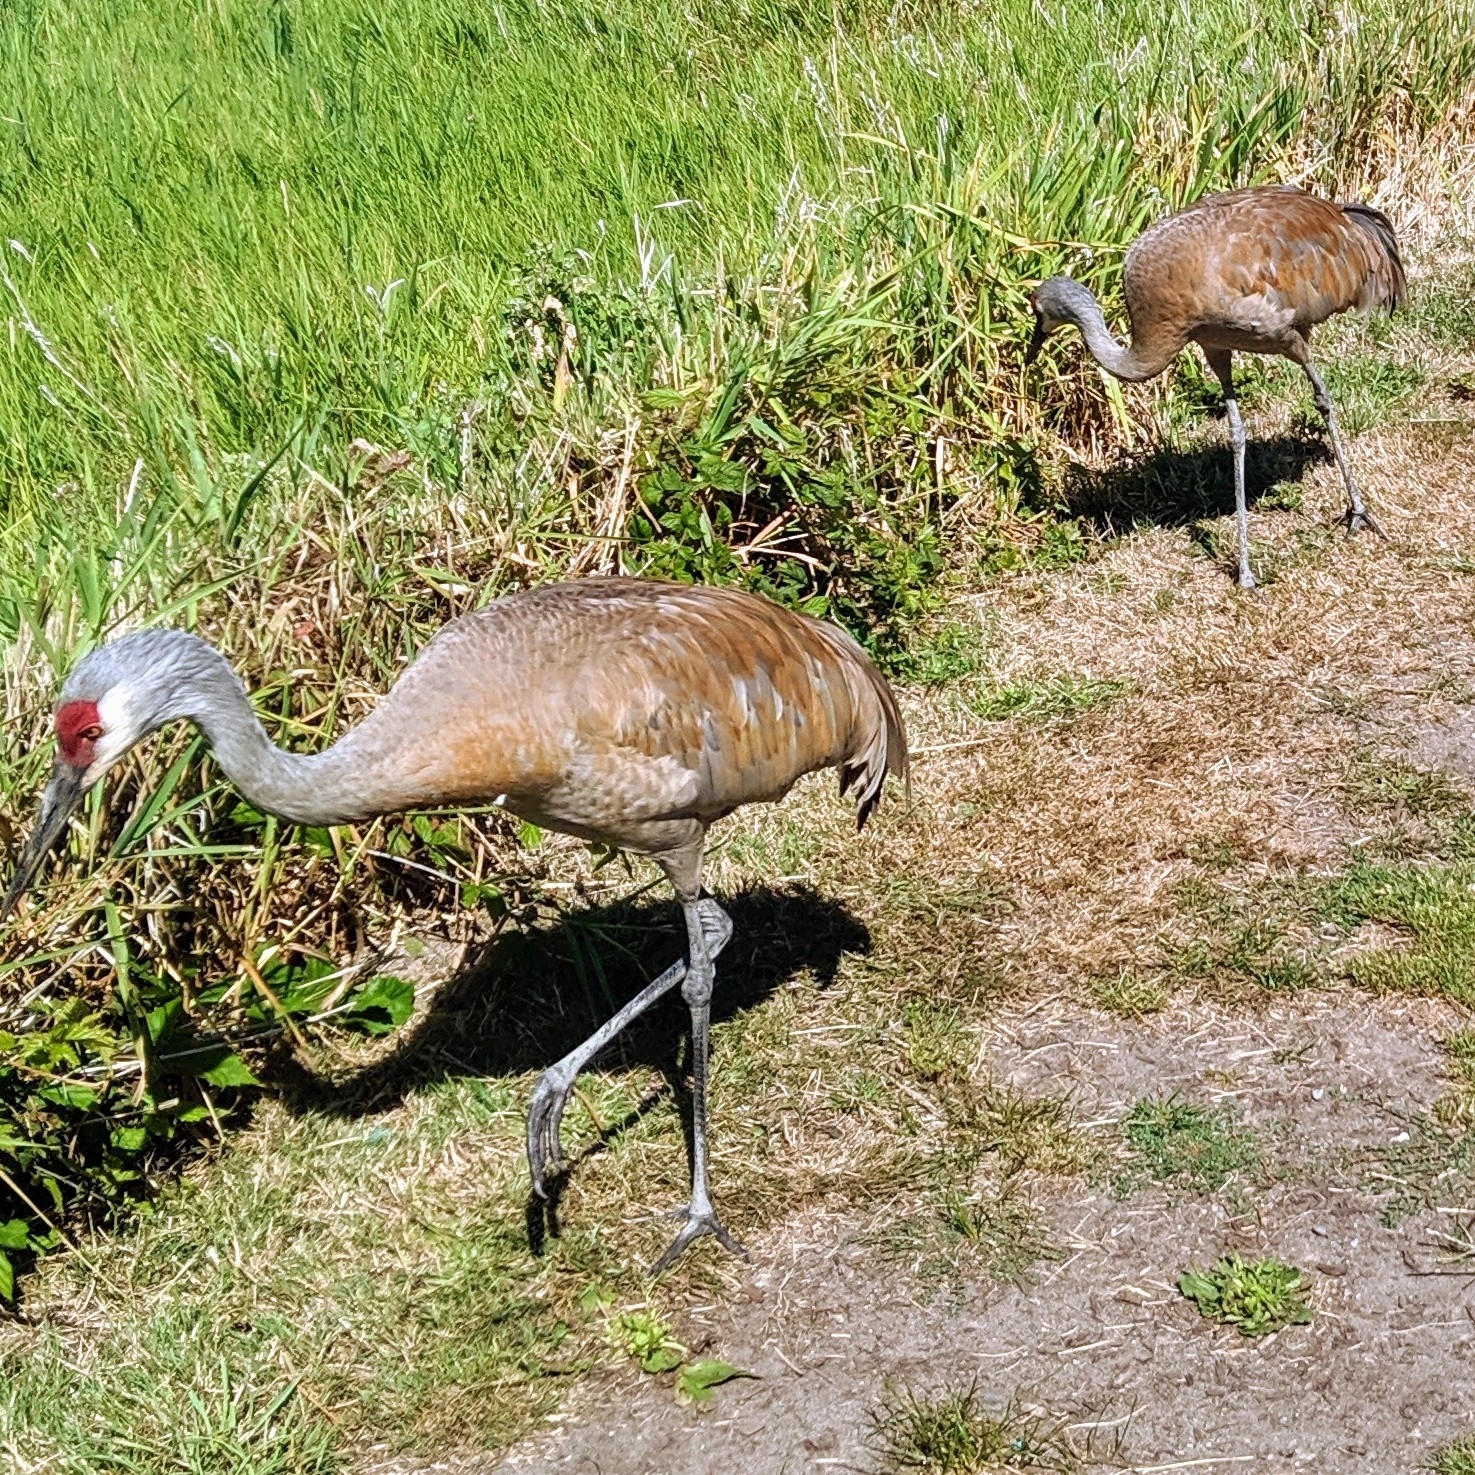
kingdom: Animalia
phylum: Chordata
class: Aves
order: Gruiformes
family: Gruidae
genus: Grus
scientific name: Grus canadensis
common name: Sandhill crane
